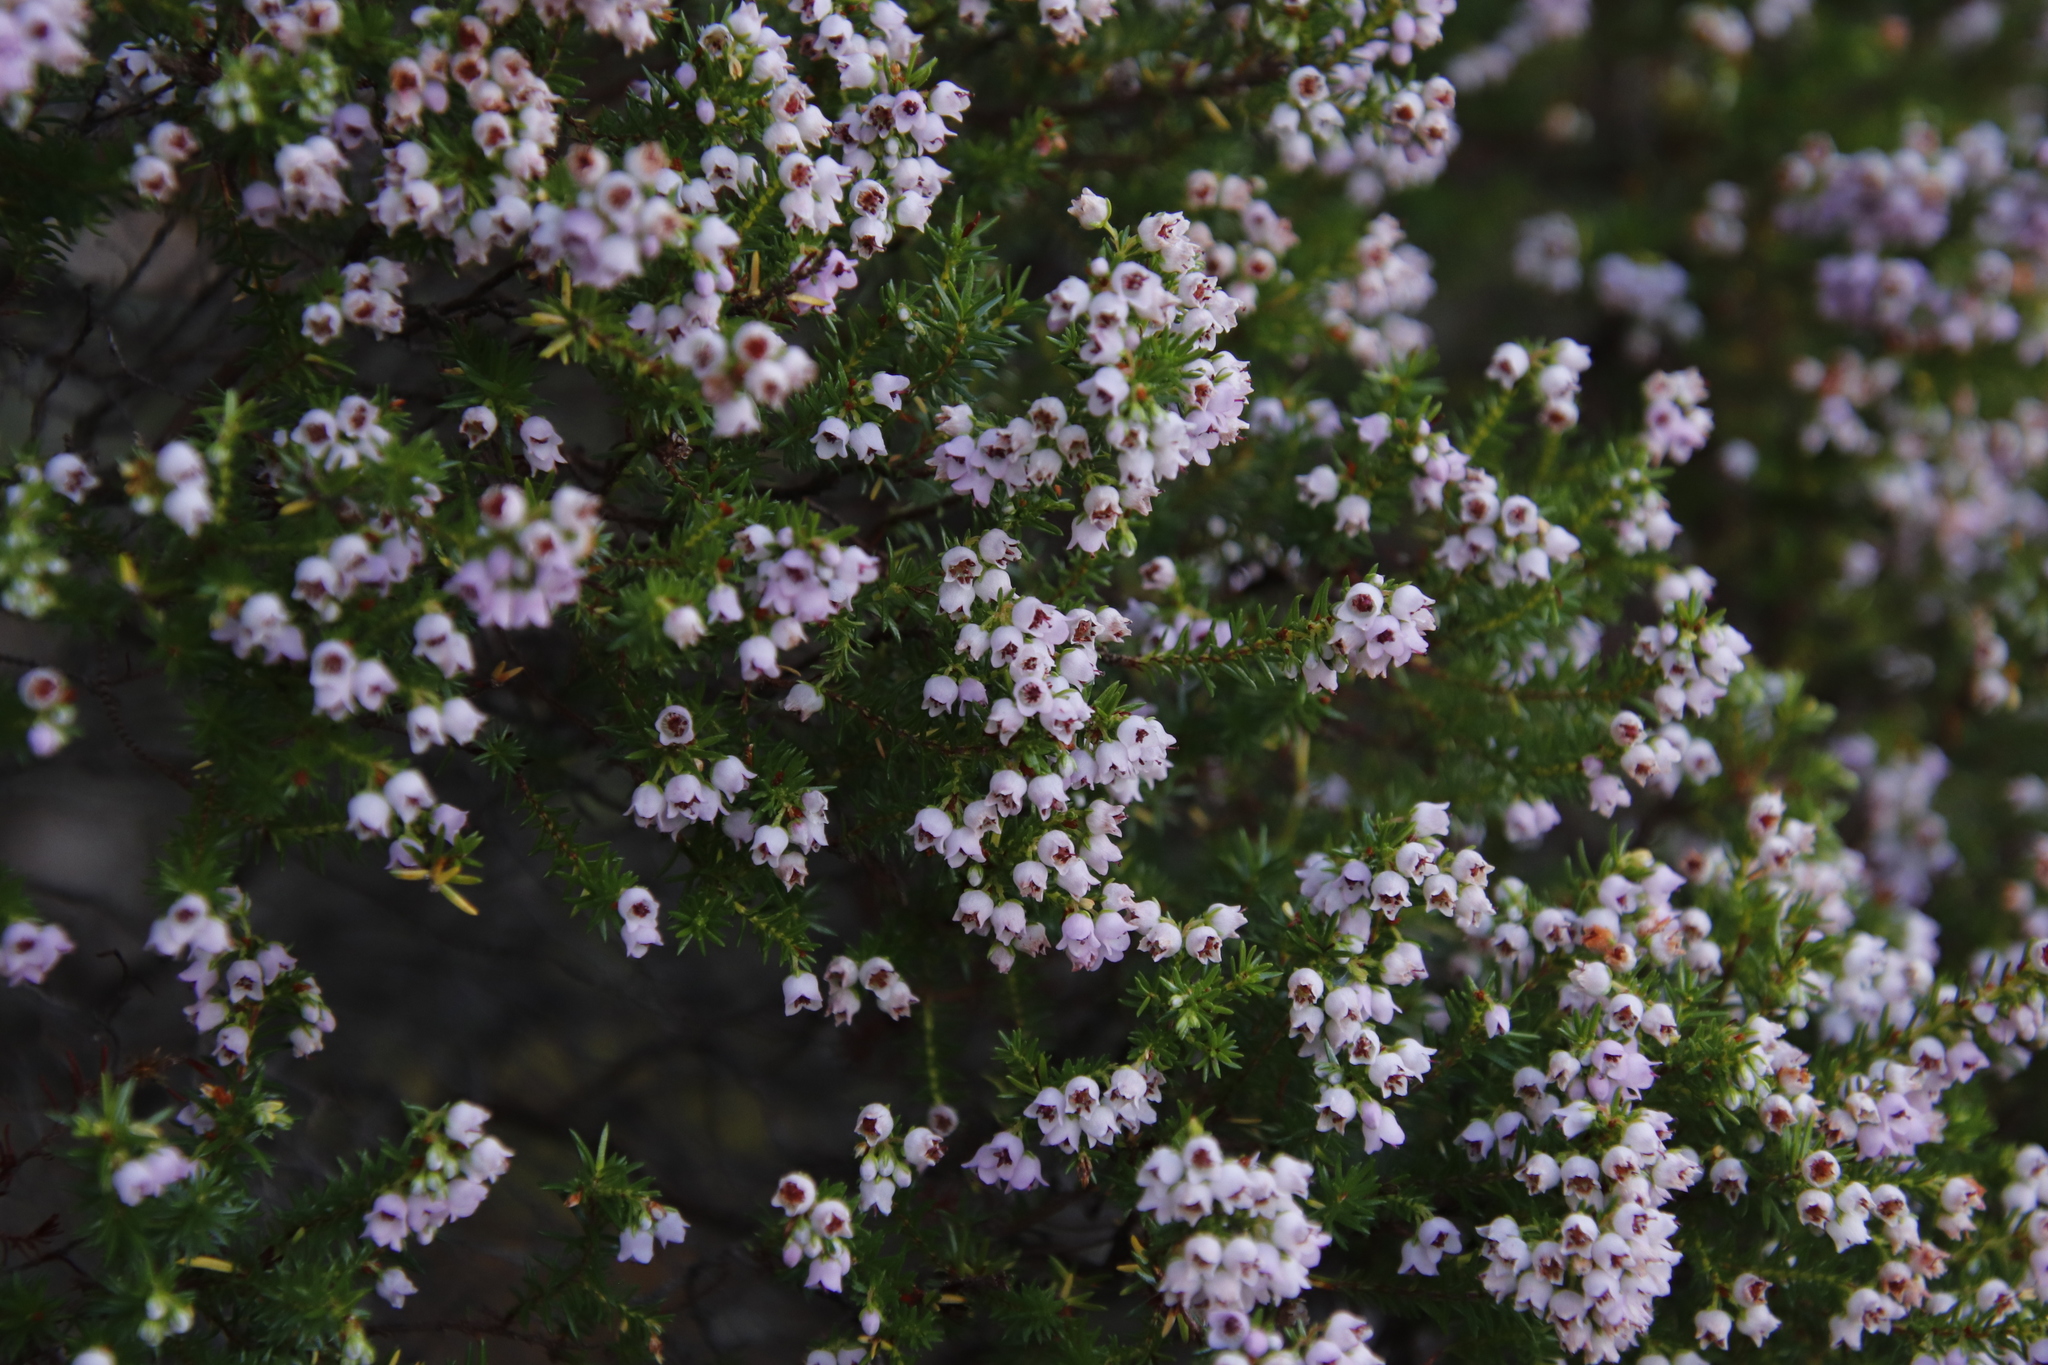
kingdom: Plantae
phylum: Tracheophyta
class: Magnoliopsida
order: Ericales
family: Ericaceae
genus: Erica
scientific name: Erica curvirostris
